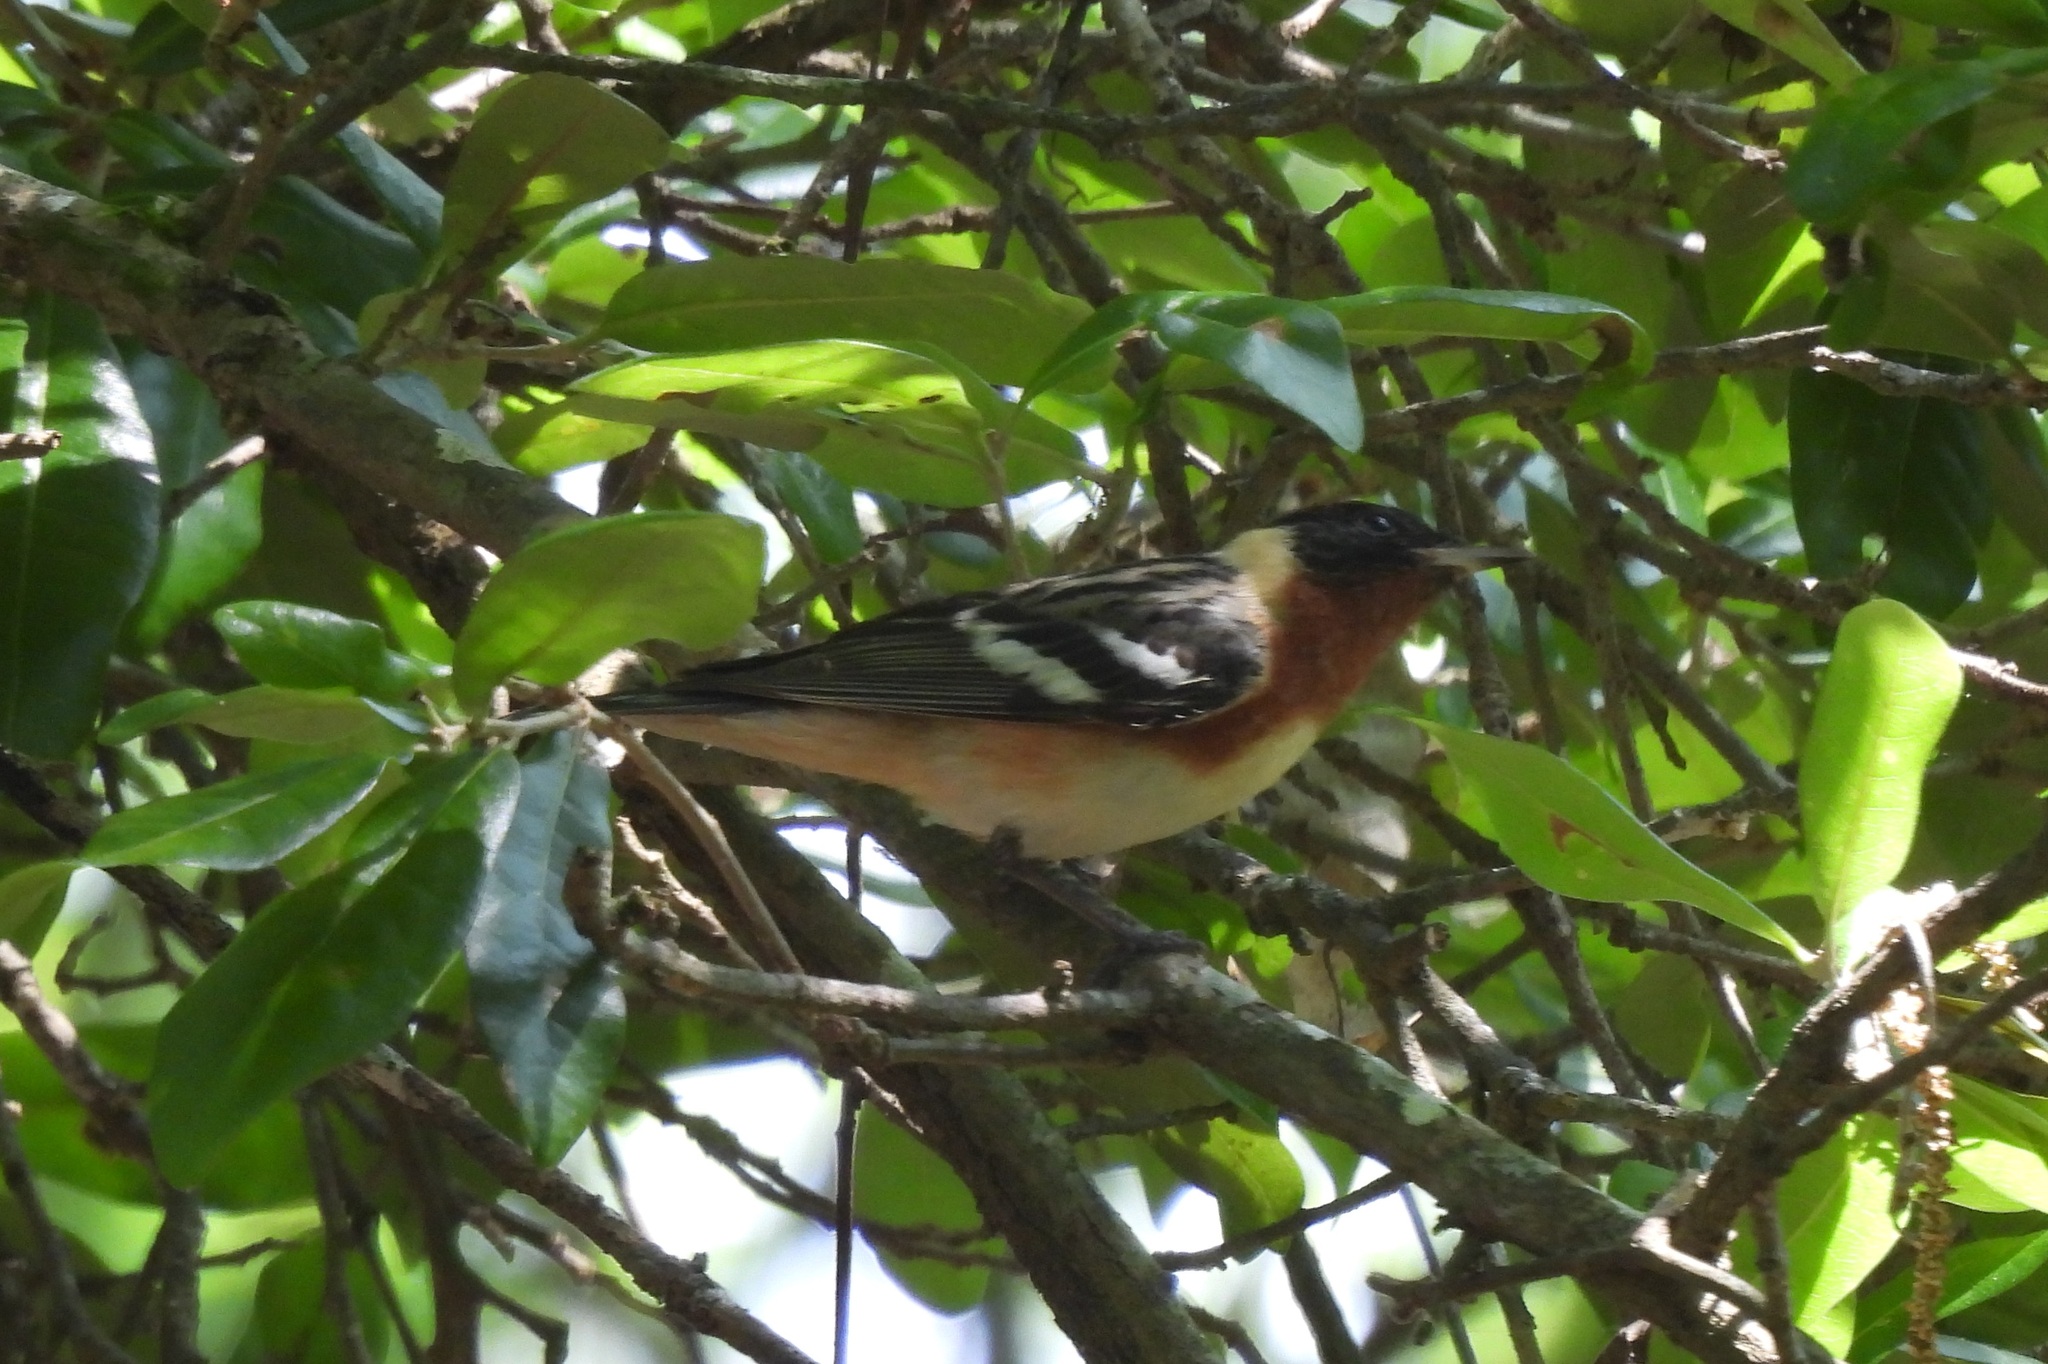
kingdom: Animalia
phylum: Chordata
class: Aves
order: Passeriformes
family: Parulidae
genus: Setophaga
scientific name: Setophaga castanea
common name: Bay-breasted warbler
